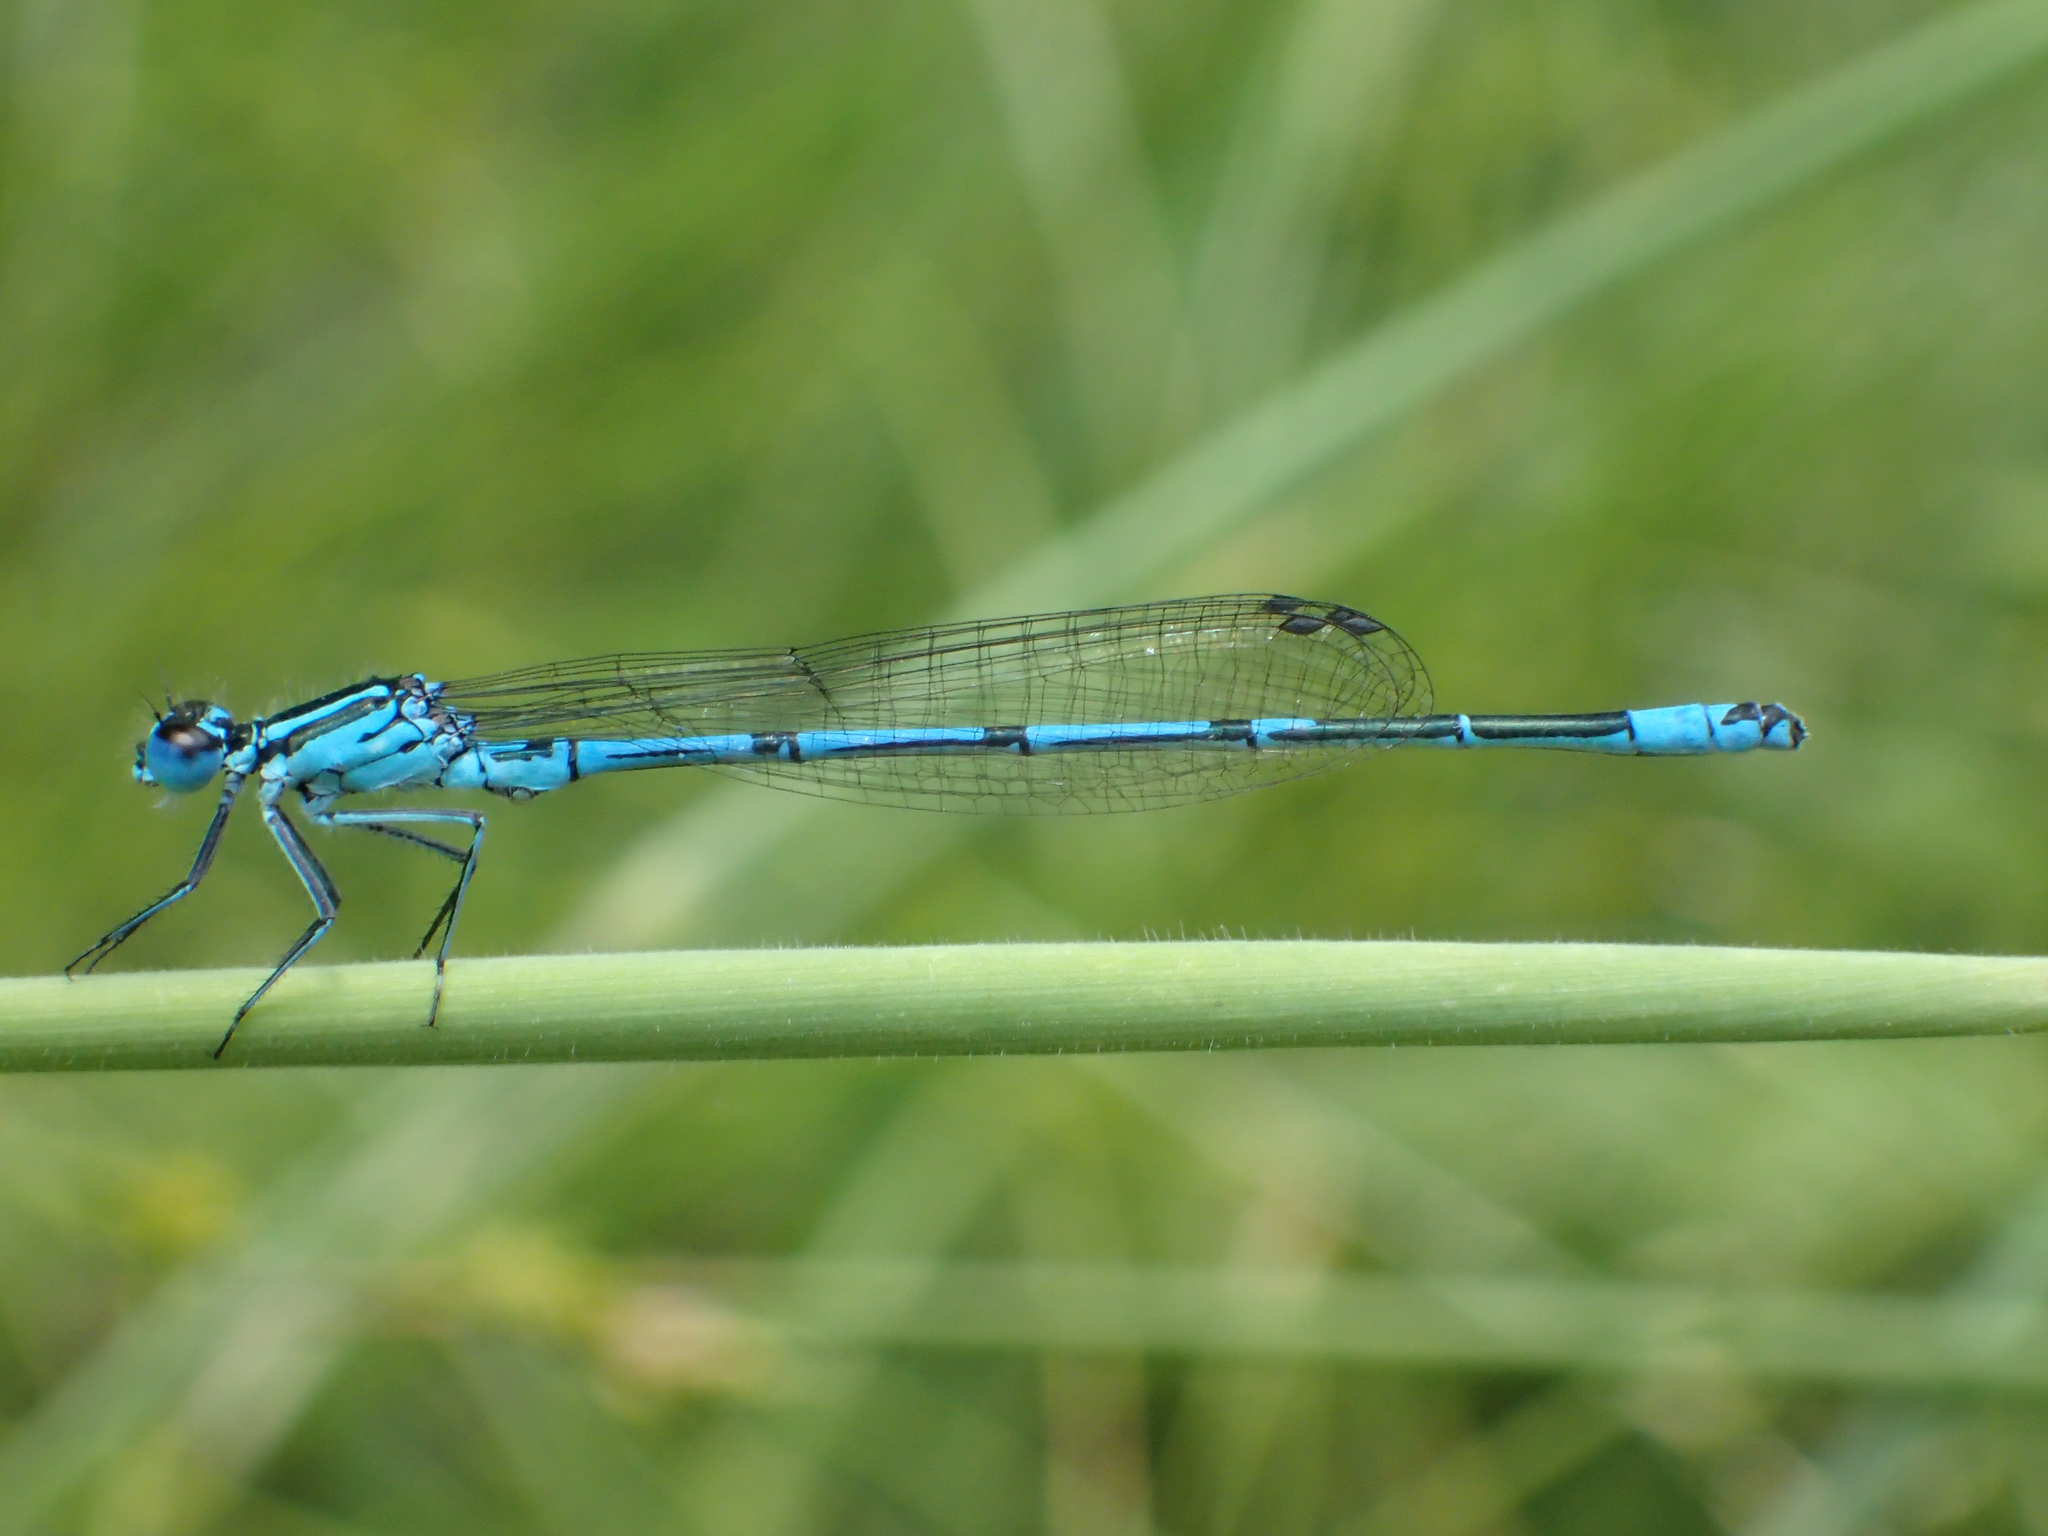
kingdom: Animalia
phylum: Arthropoda
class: Insecta
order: Odonata
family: Coenagrionidae
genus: Coenagrion
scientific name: Coenagrion puella
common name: Azure damselfly
